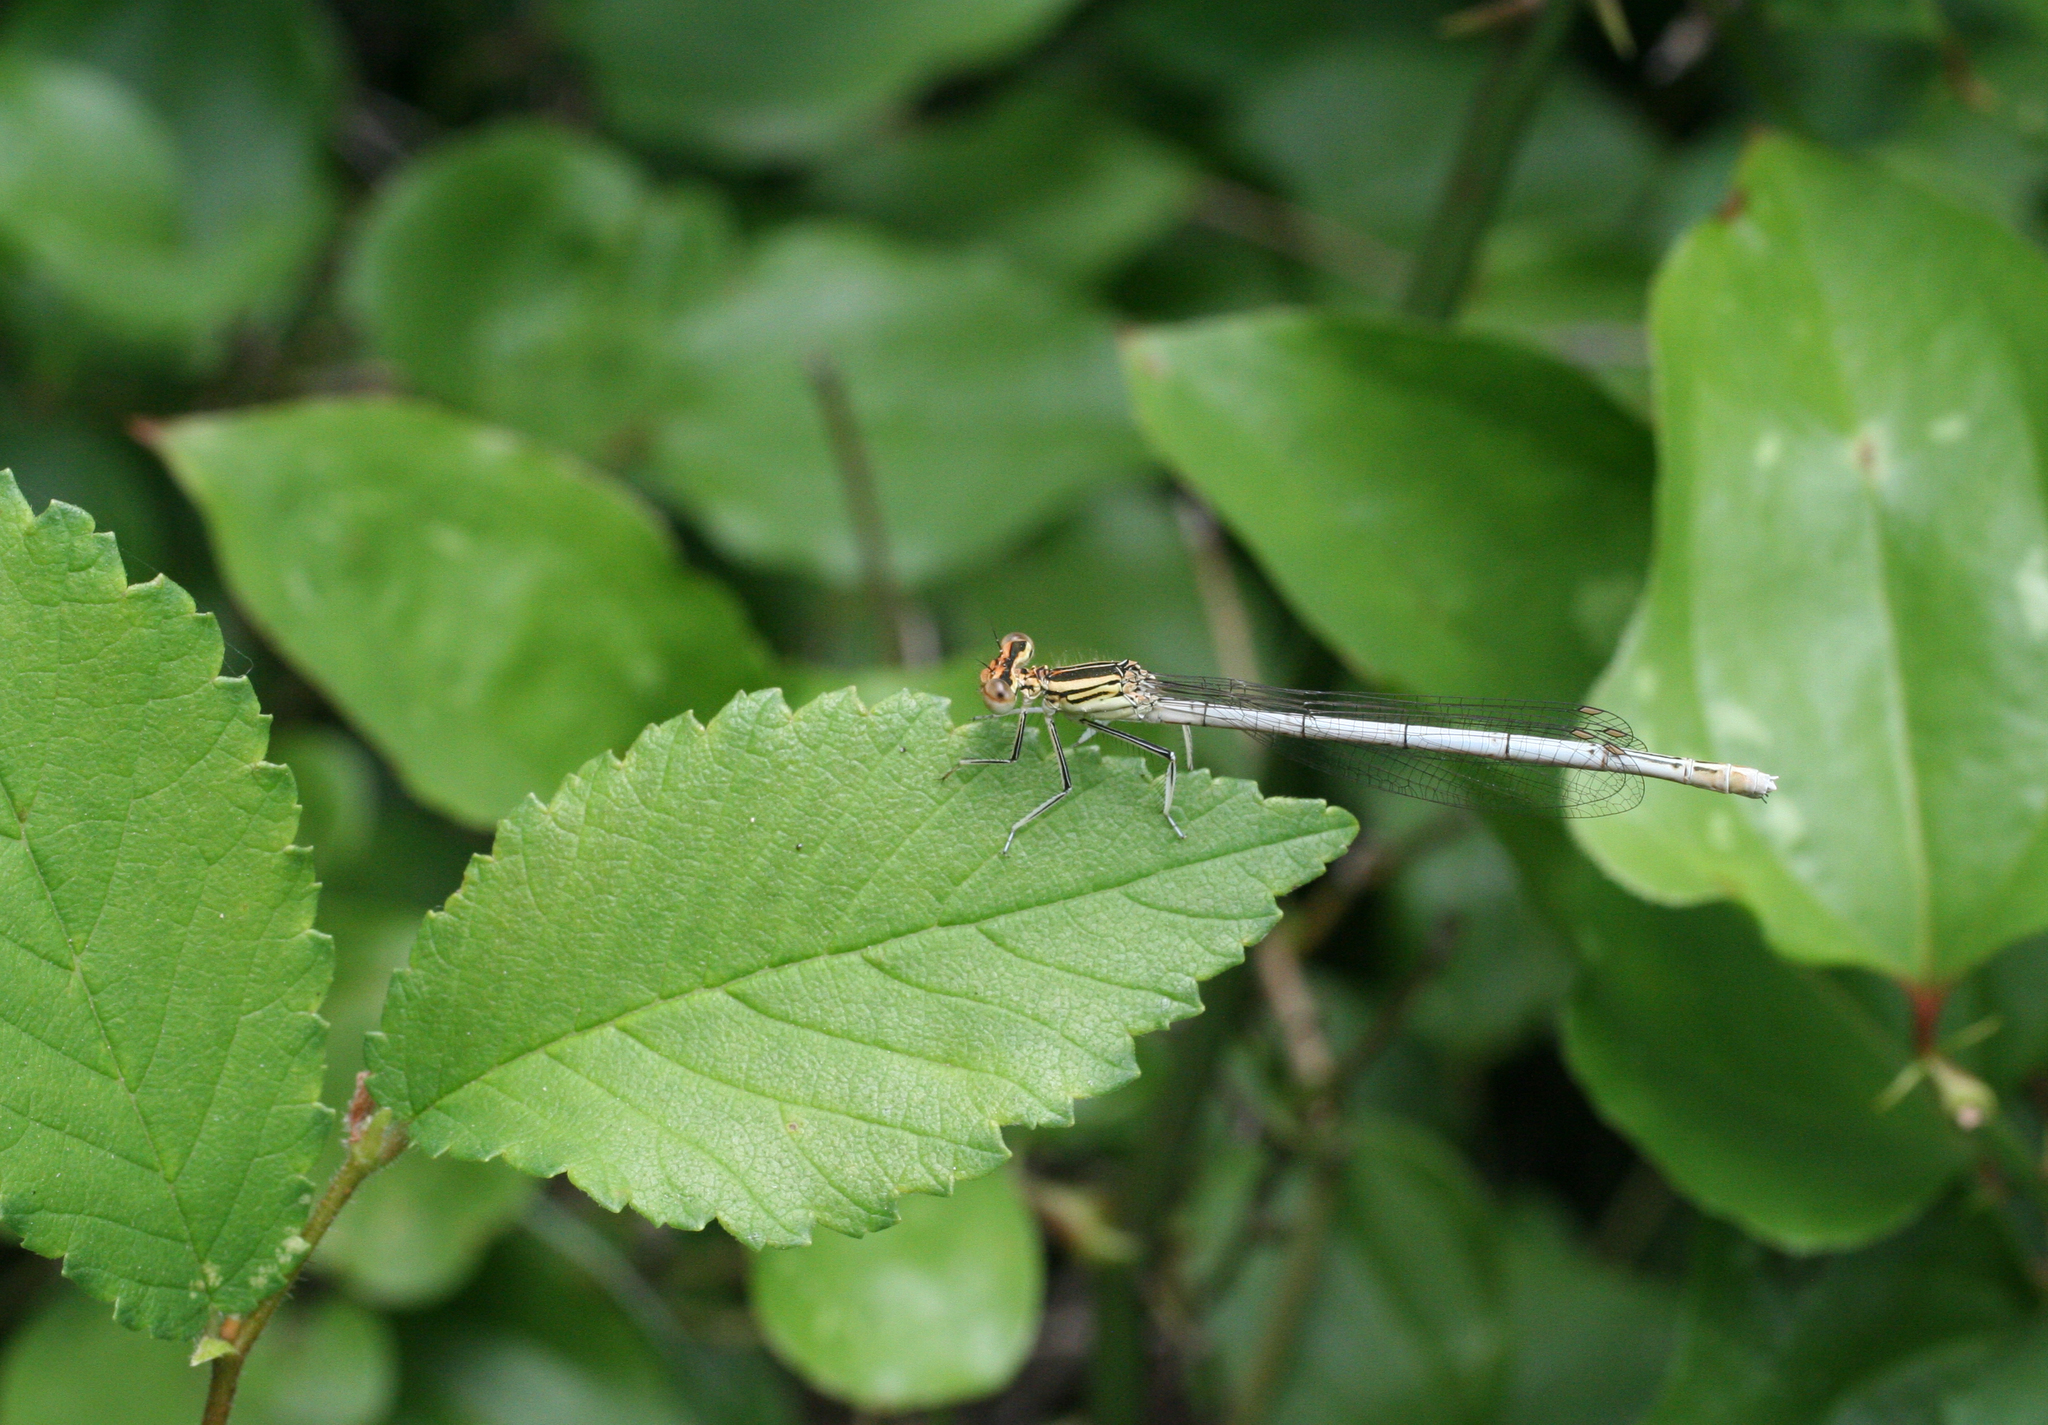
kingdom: Animalia
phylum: Arthropoda
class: Insecta
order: Odonata
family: Platycnemididae
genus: Platycnemis
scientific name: Platycnemis pennipes
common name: White-legged damselfly
